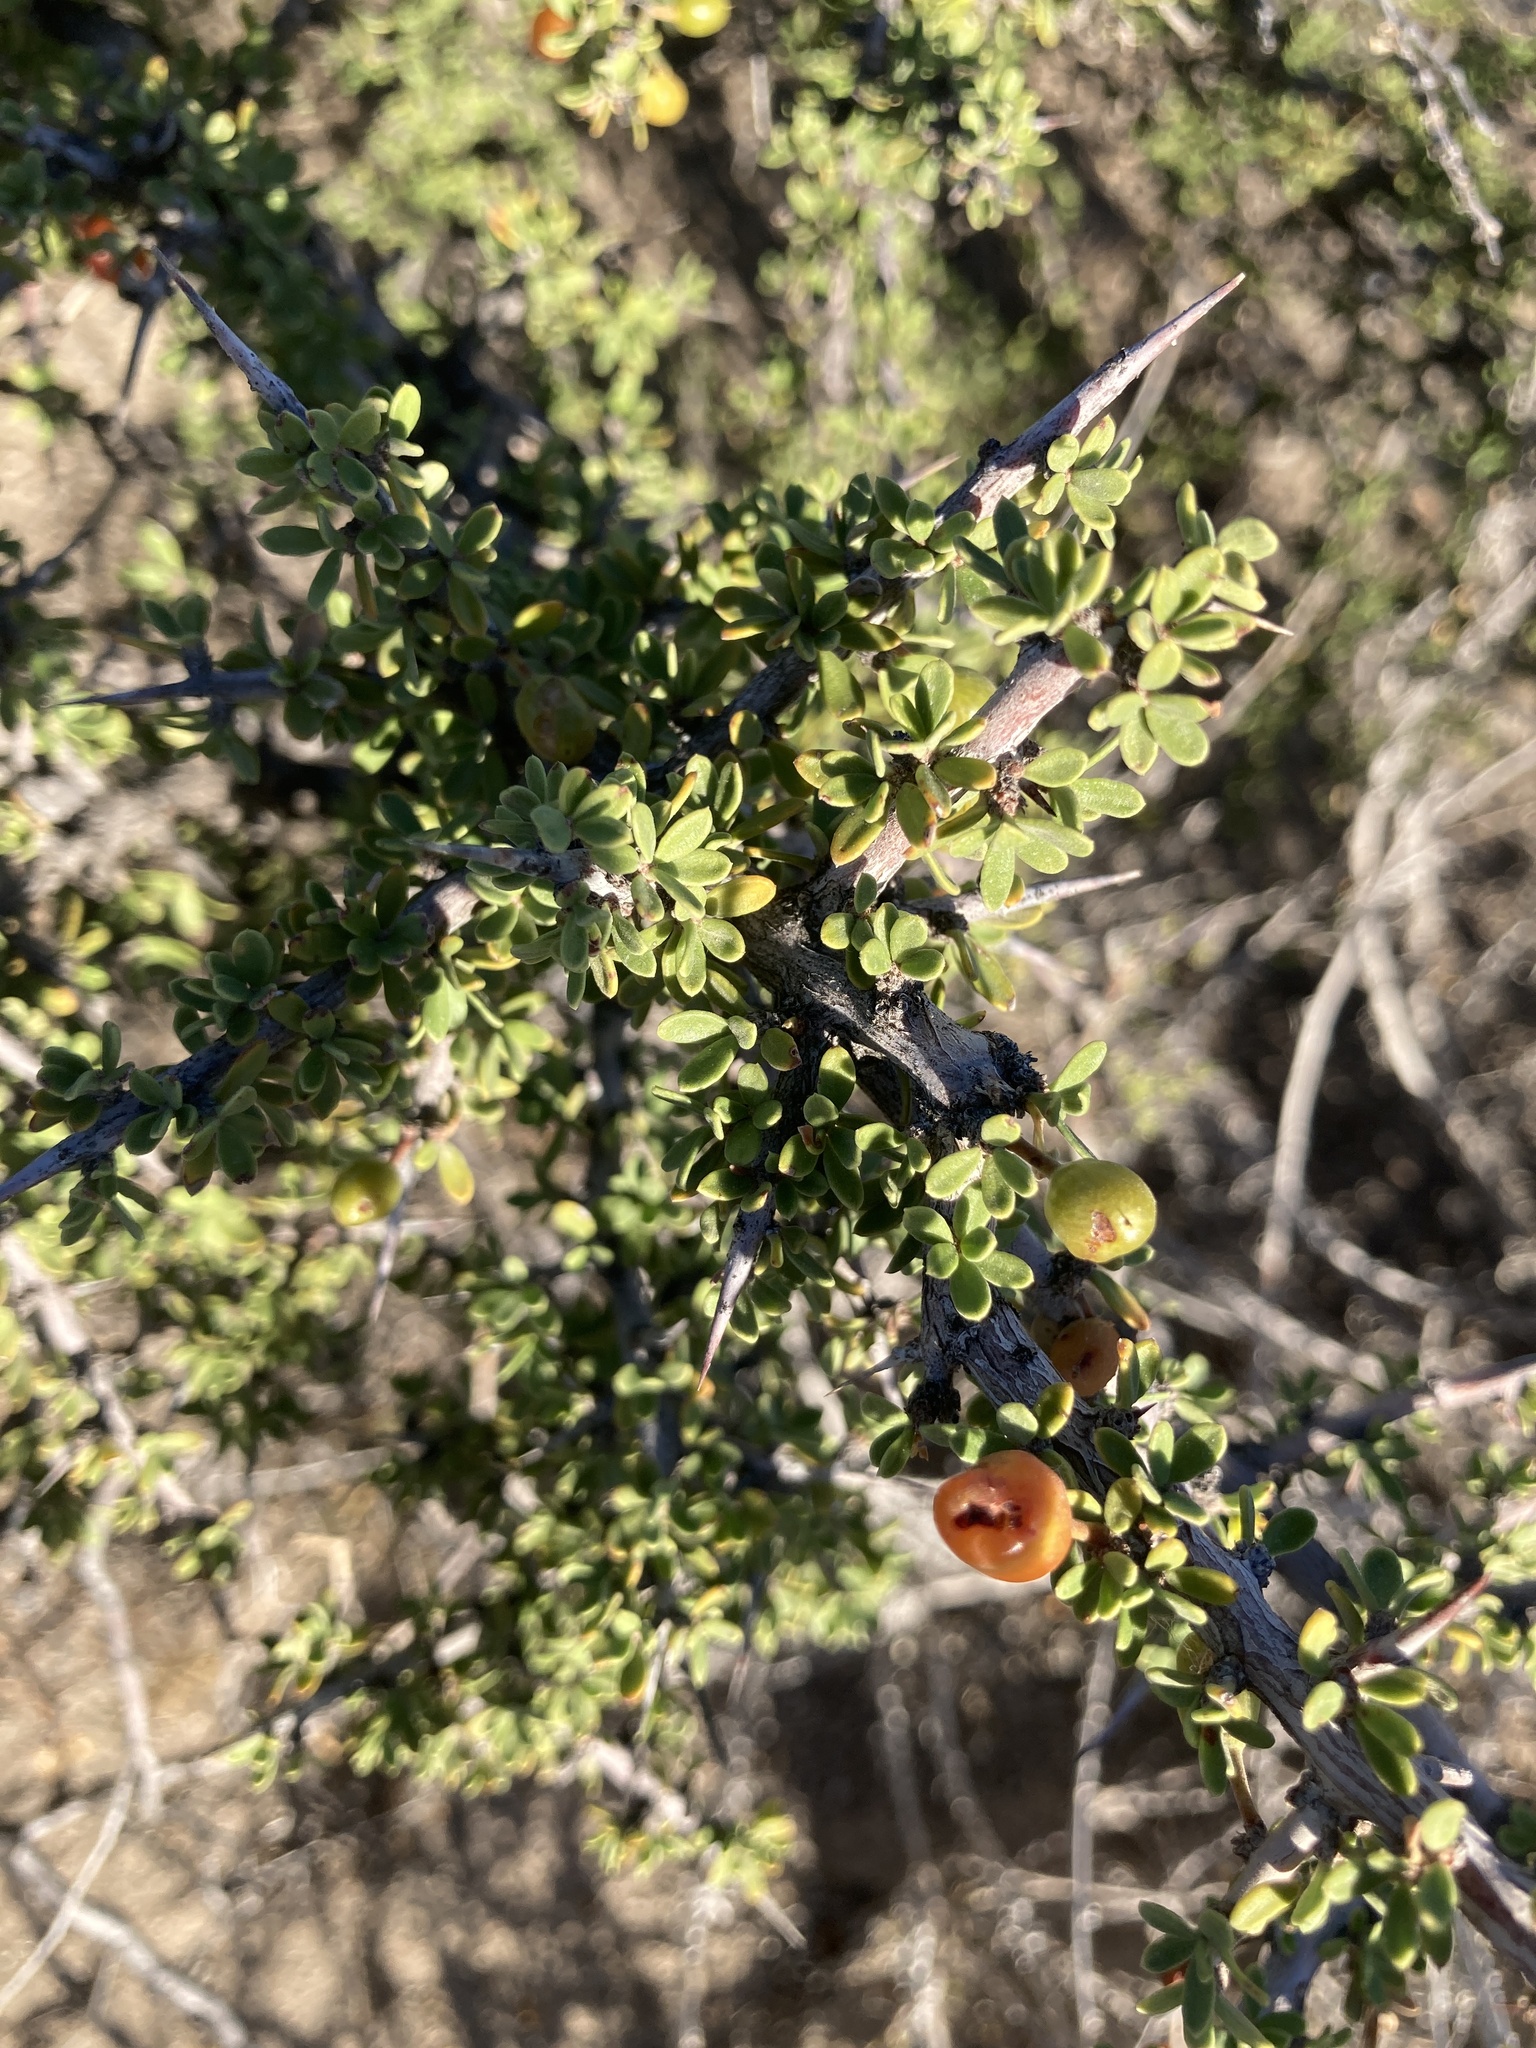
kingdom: Plantae
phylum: Tracheophyta
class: Magnoliopsida
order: Rosales
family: Rhamnaceae
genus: Condalia
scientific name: Condalia microphylla
